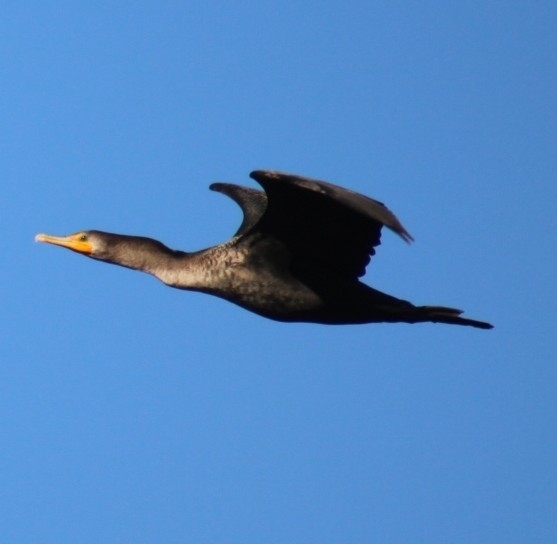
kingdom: Animalia
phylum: Chordata
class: Aves
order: Suliformes
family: Phalacrocoracidae
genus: Phalacrocorax
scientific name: Phalacrocorax auritus
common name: Double-crested cormorant
